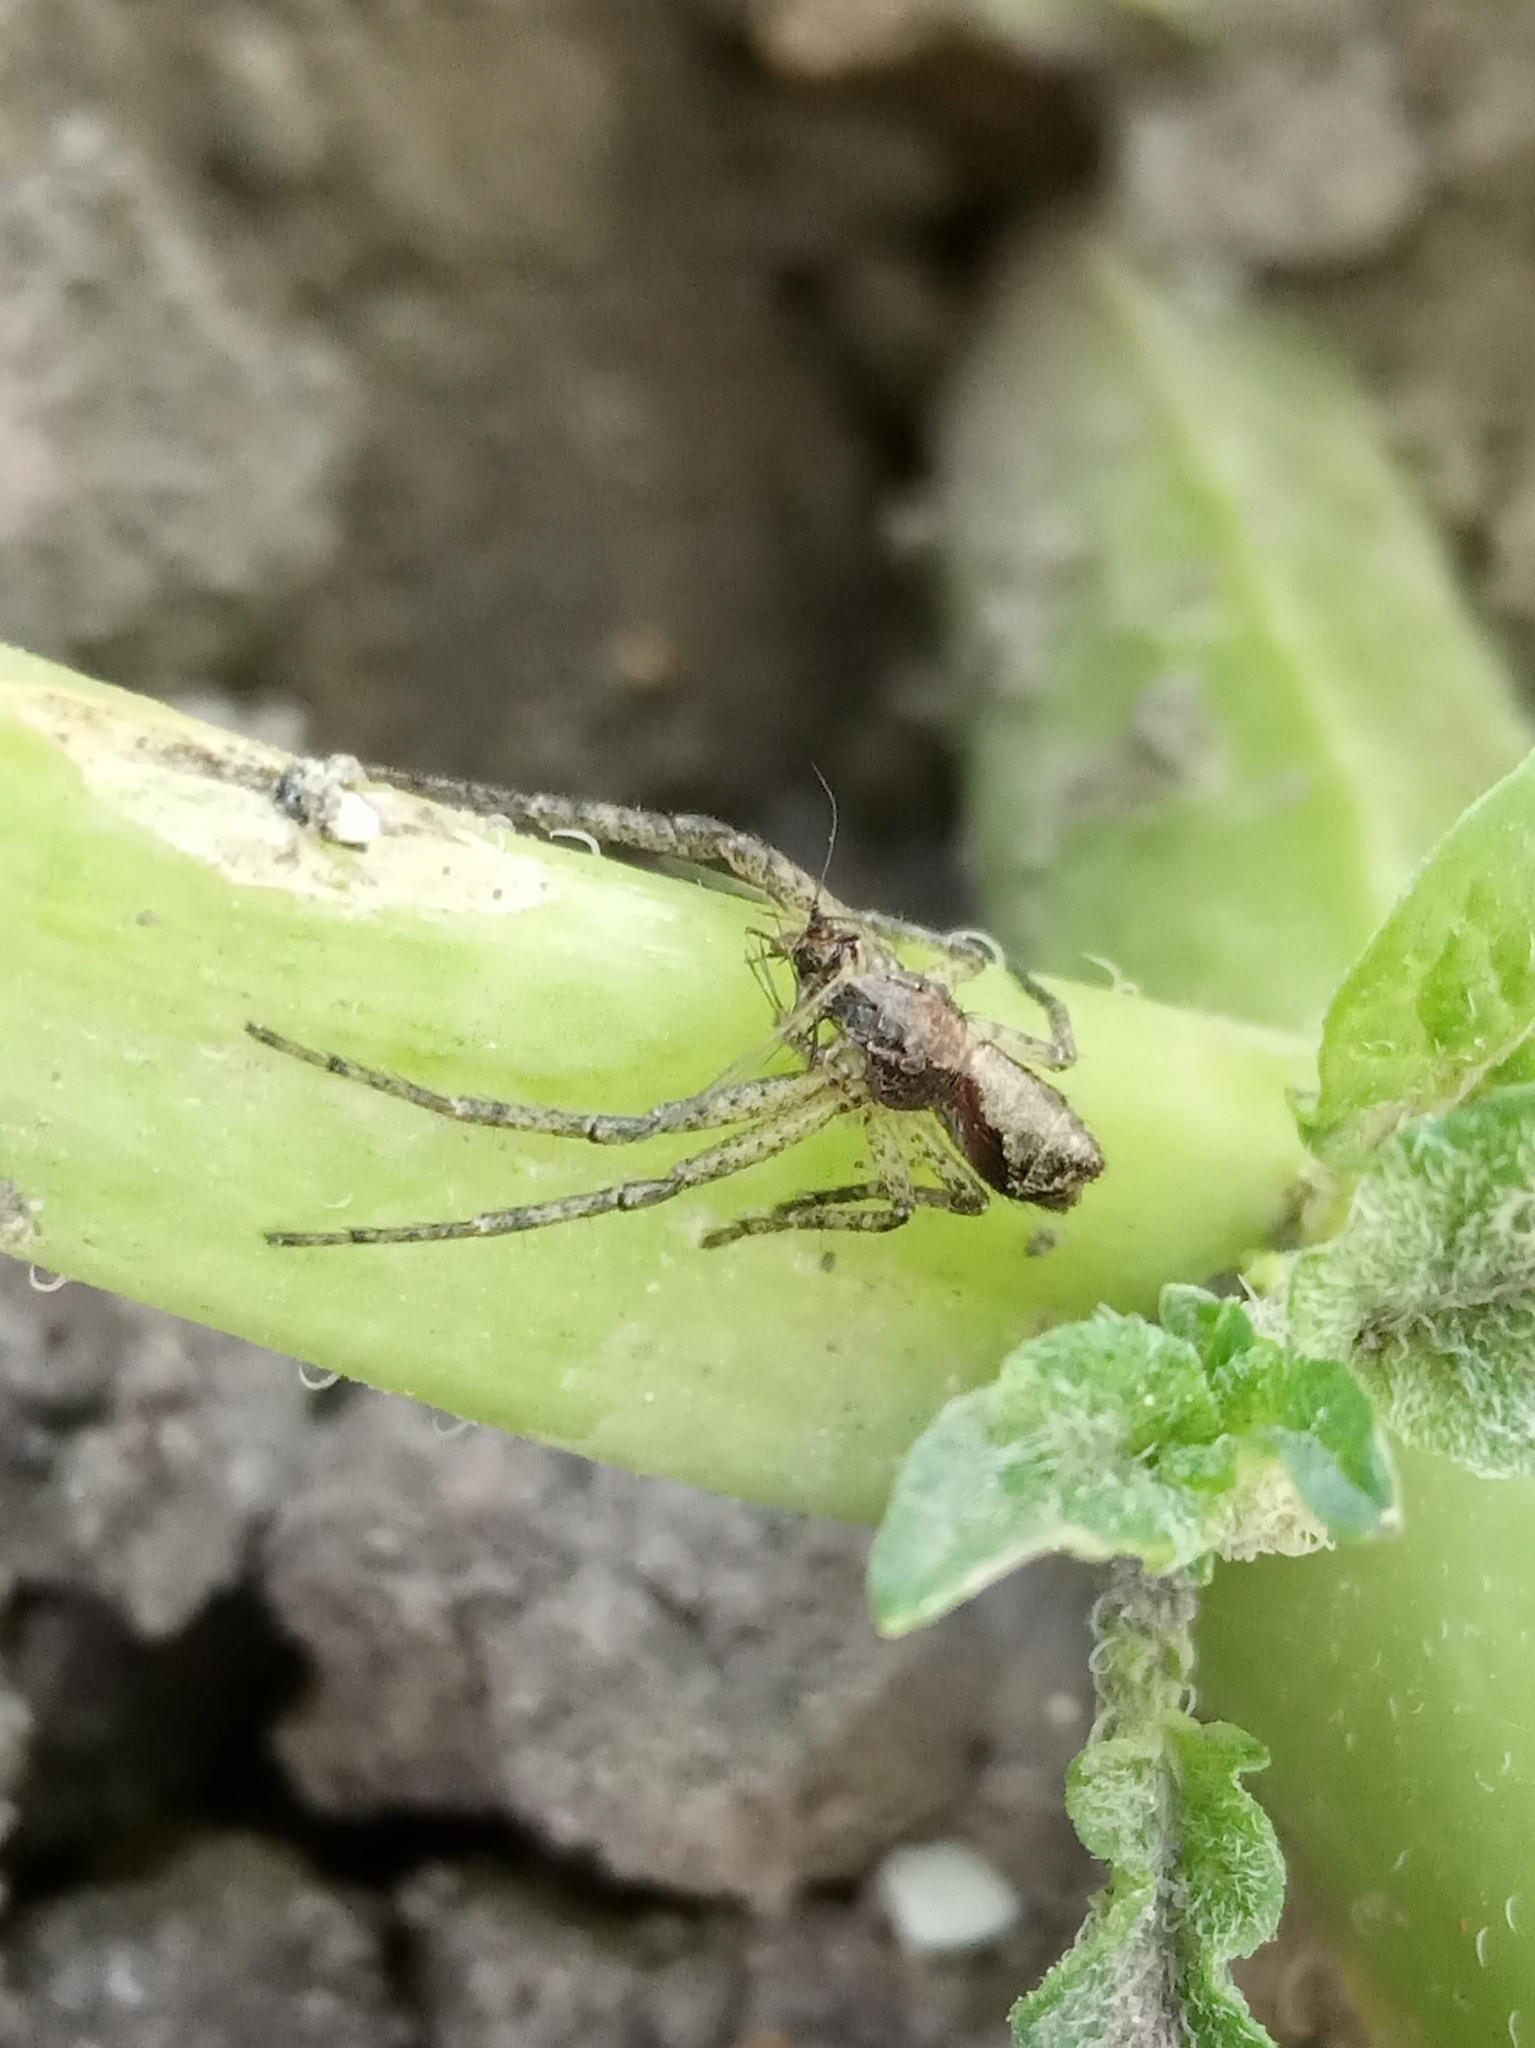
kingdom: Animalia
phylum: Arthropoda
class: Arachnida
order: Araneae
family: Thomisidae
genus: Tmarus
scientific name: Tmarus
